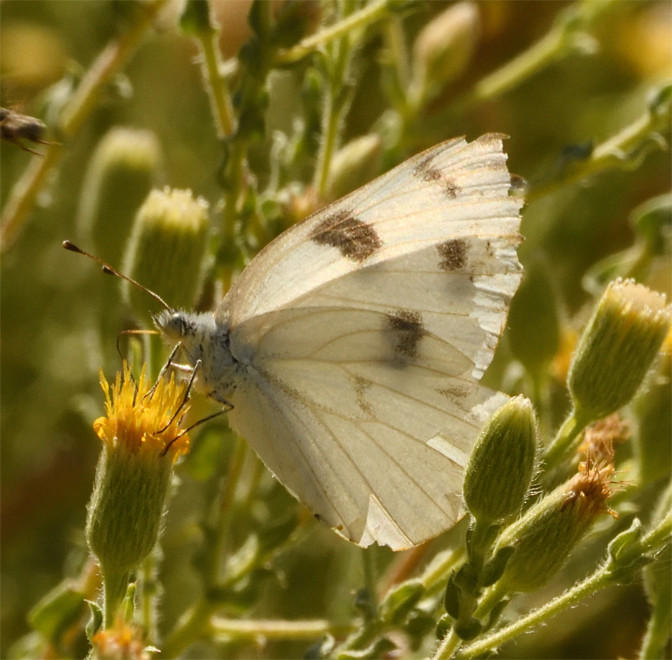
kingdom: Animalia
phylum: Arthropoda
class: Insecta
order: Lepidoptera
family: Pieridae
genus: Pontia
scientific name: Pontia protodice
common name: Checkered white
